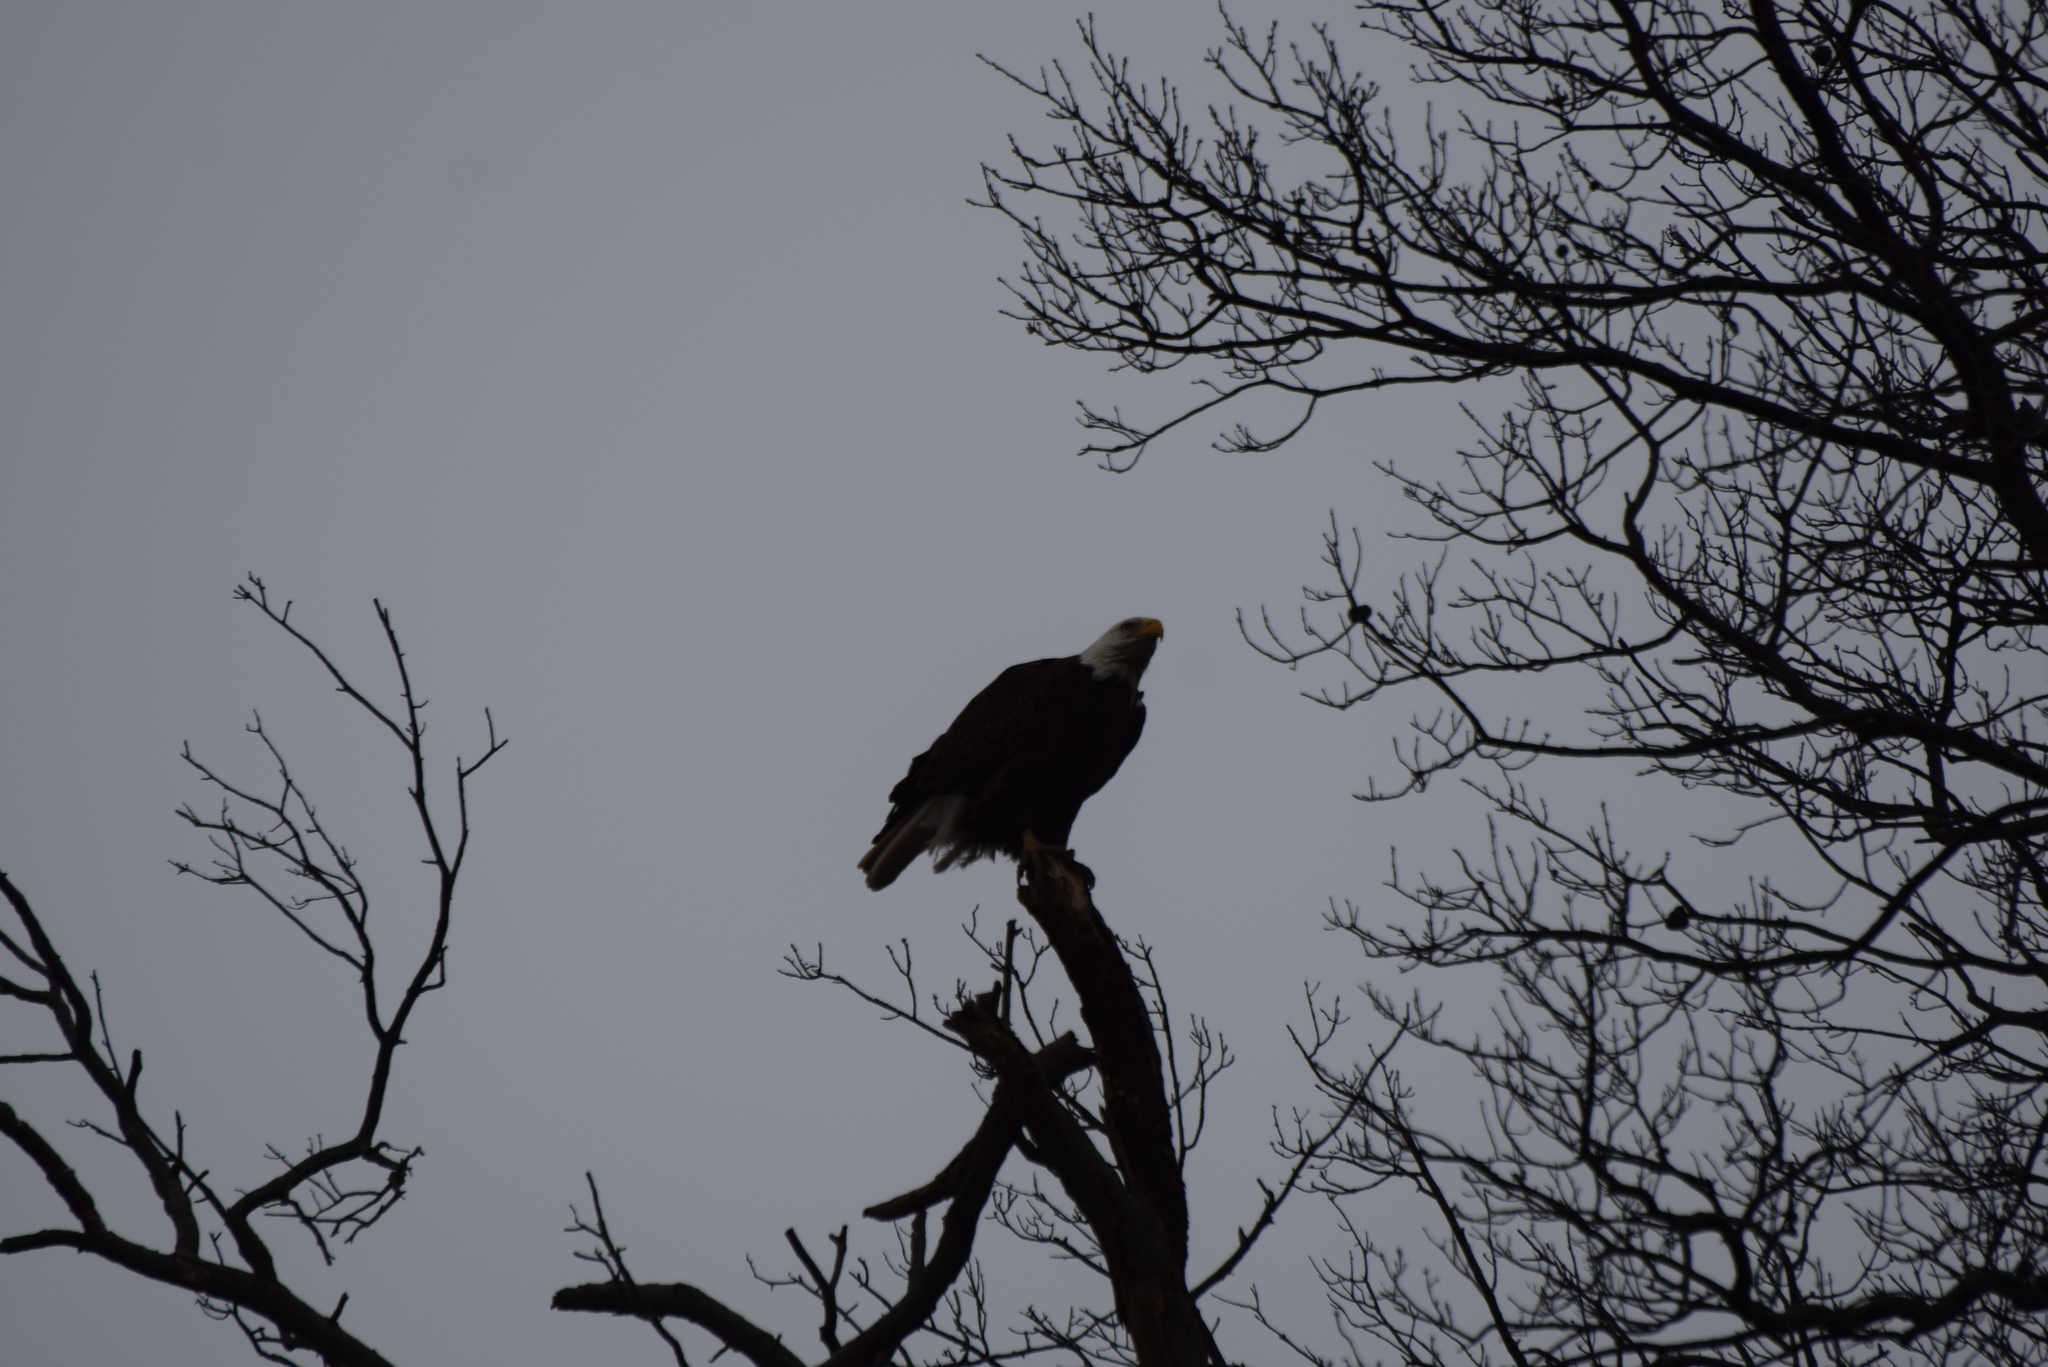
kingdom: Animalia
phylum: Chordata
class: Aves
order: Accipitriformes
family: Accipitridae
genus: Haliaeetus
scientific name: Haliaeetus leucocephalus
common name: Bald eagle
